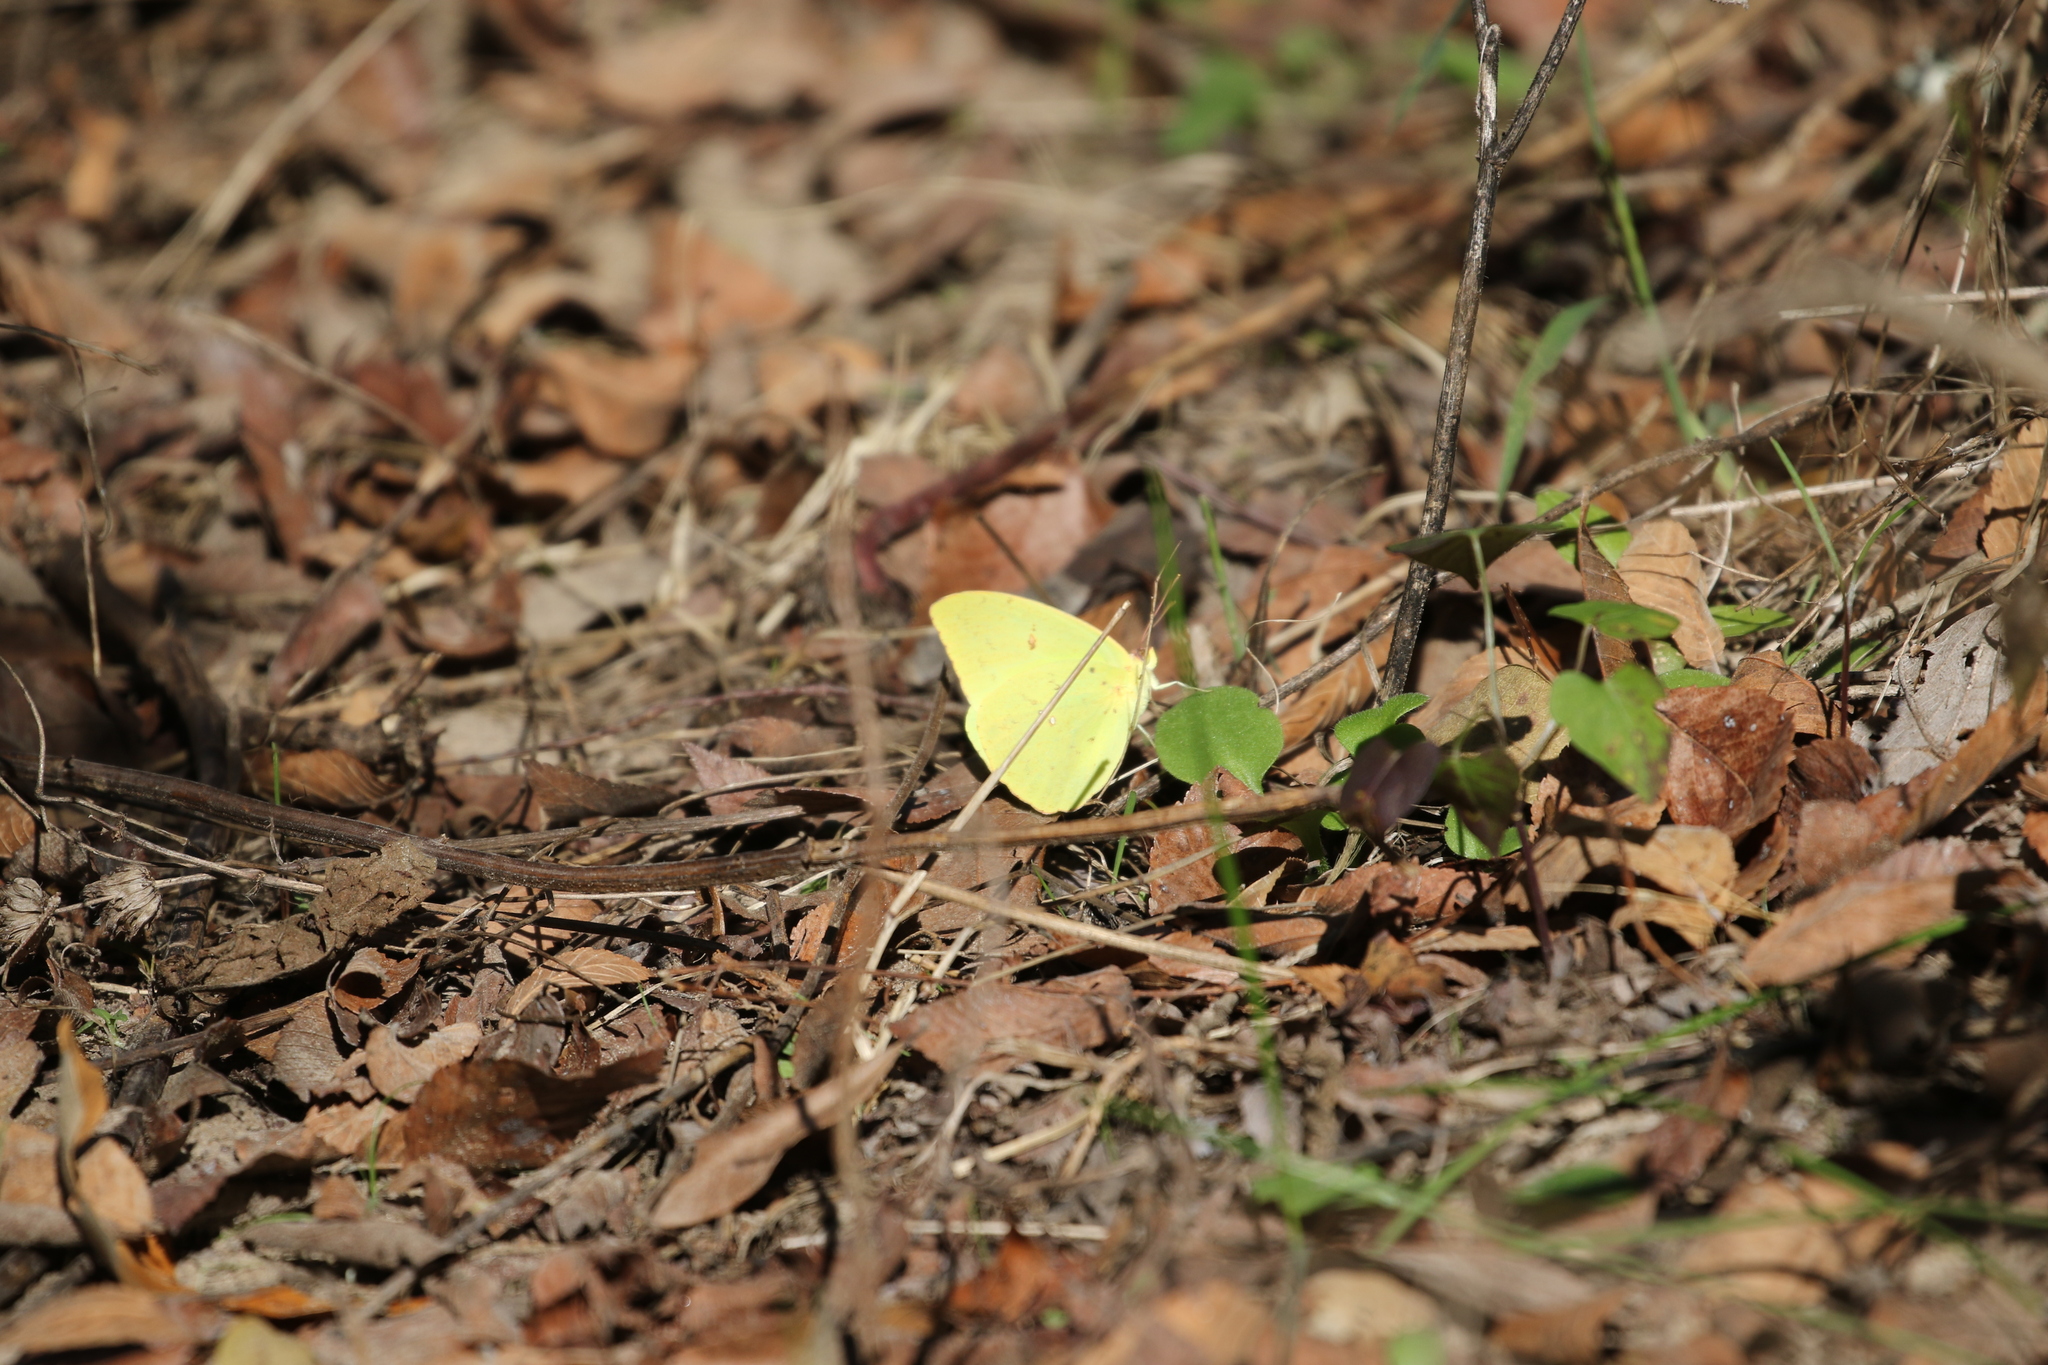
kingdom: Animalia
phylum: Arthropoda
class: Insecta
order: Lepidoptera
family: Pieridae
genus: Phoebis
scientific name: Phoebis sennae
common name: Cloudless sulphur
